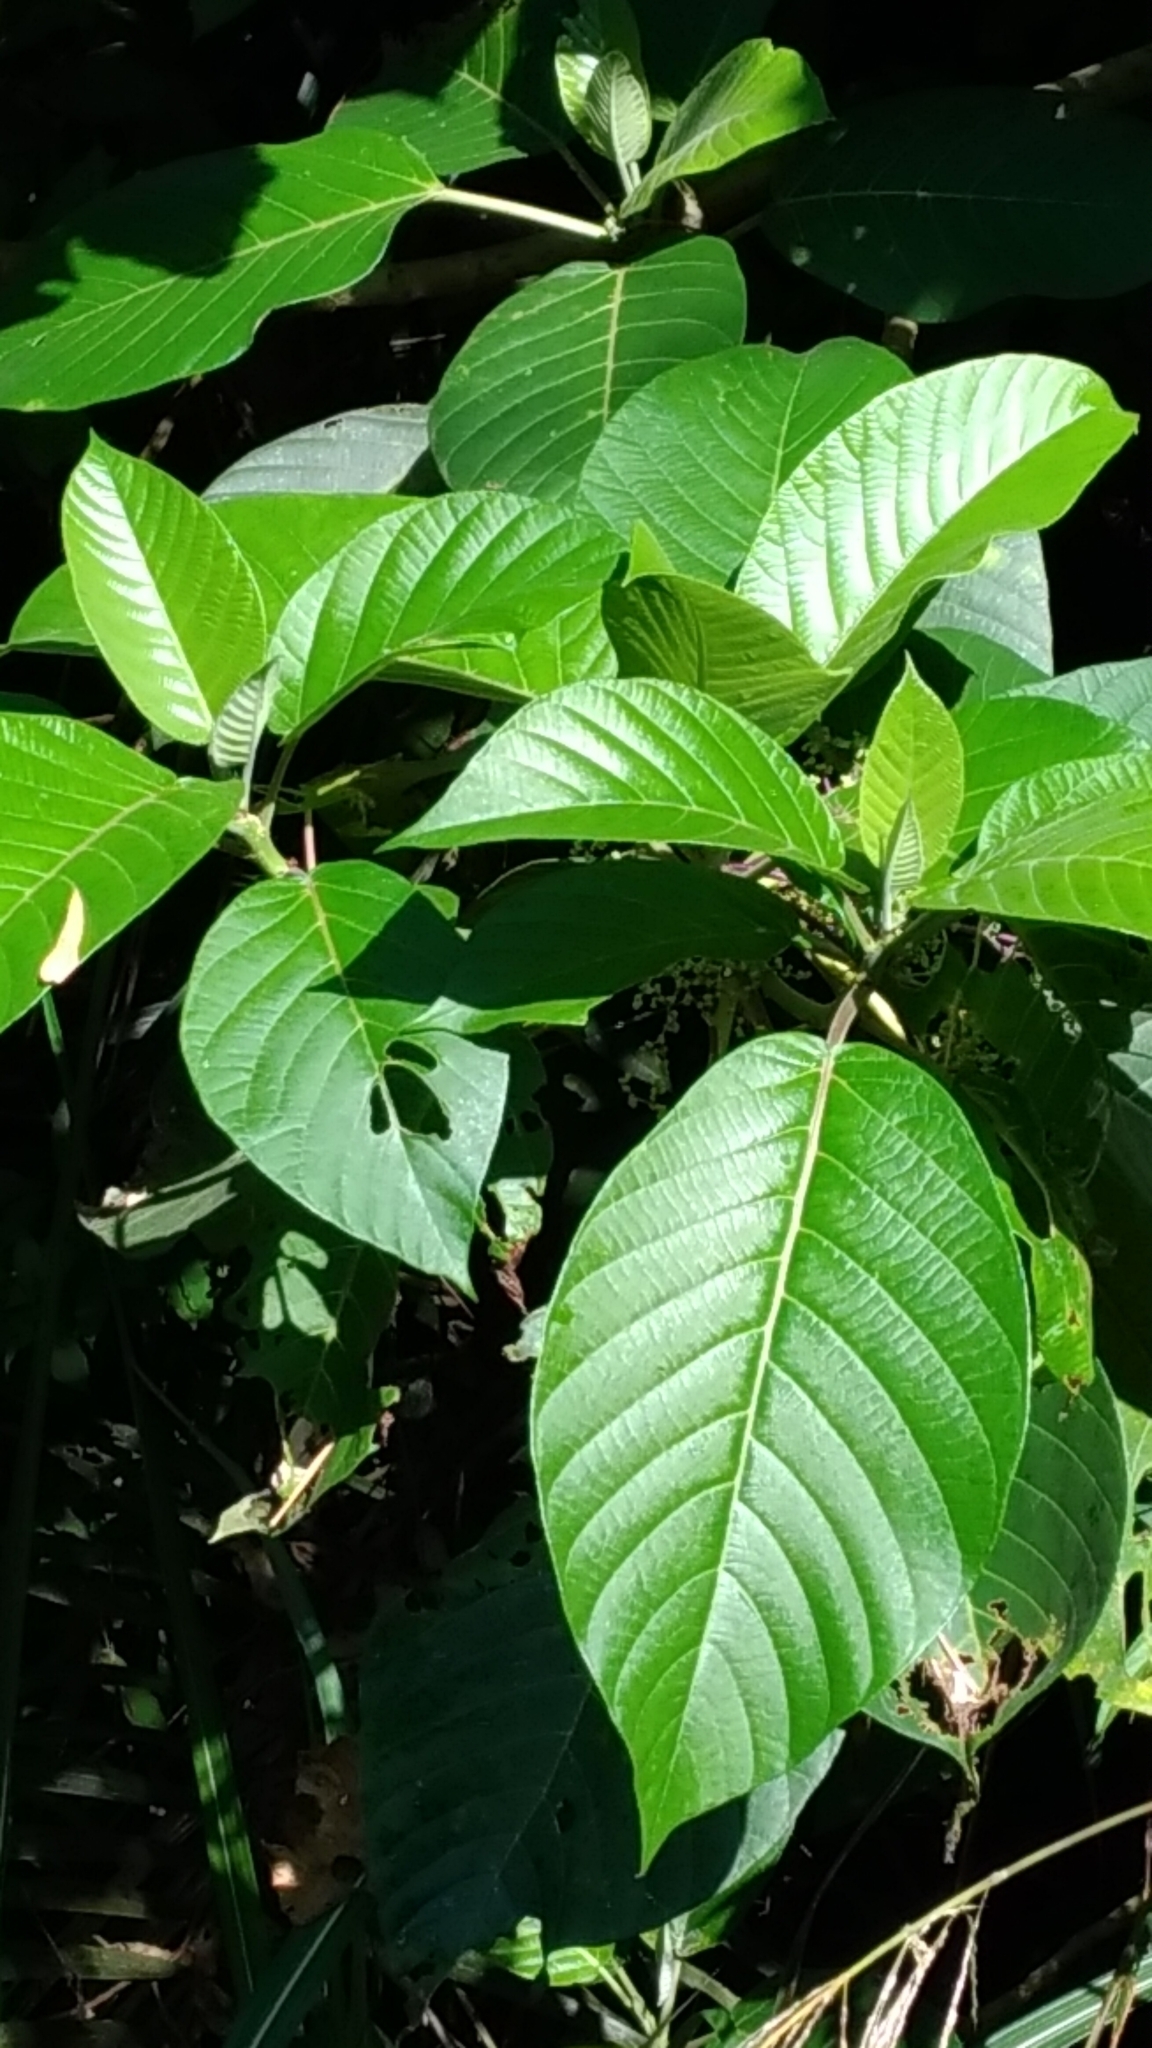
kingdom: Plantae
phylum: Tracheophyta
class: Magnoliopsida
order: Rosales
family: Urticaceae
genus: Dendrocnide
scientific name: Dendrocnide meyeniana
